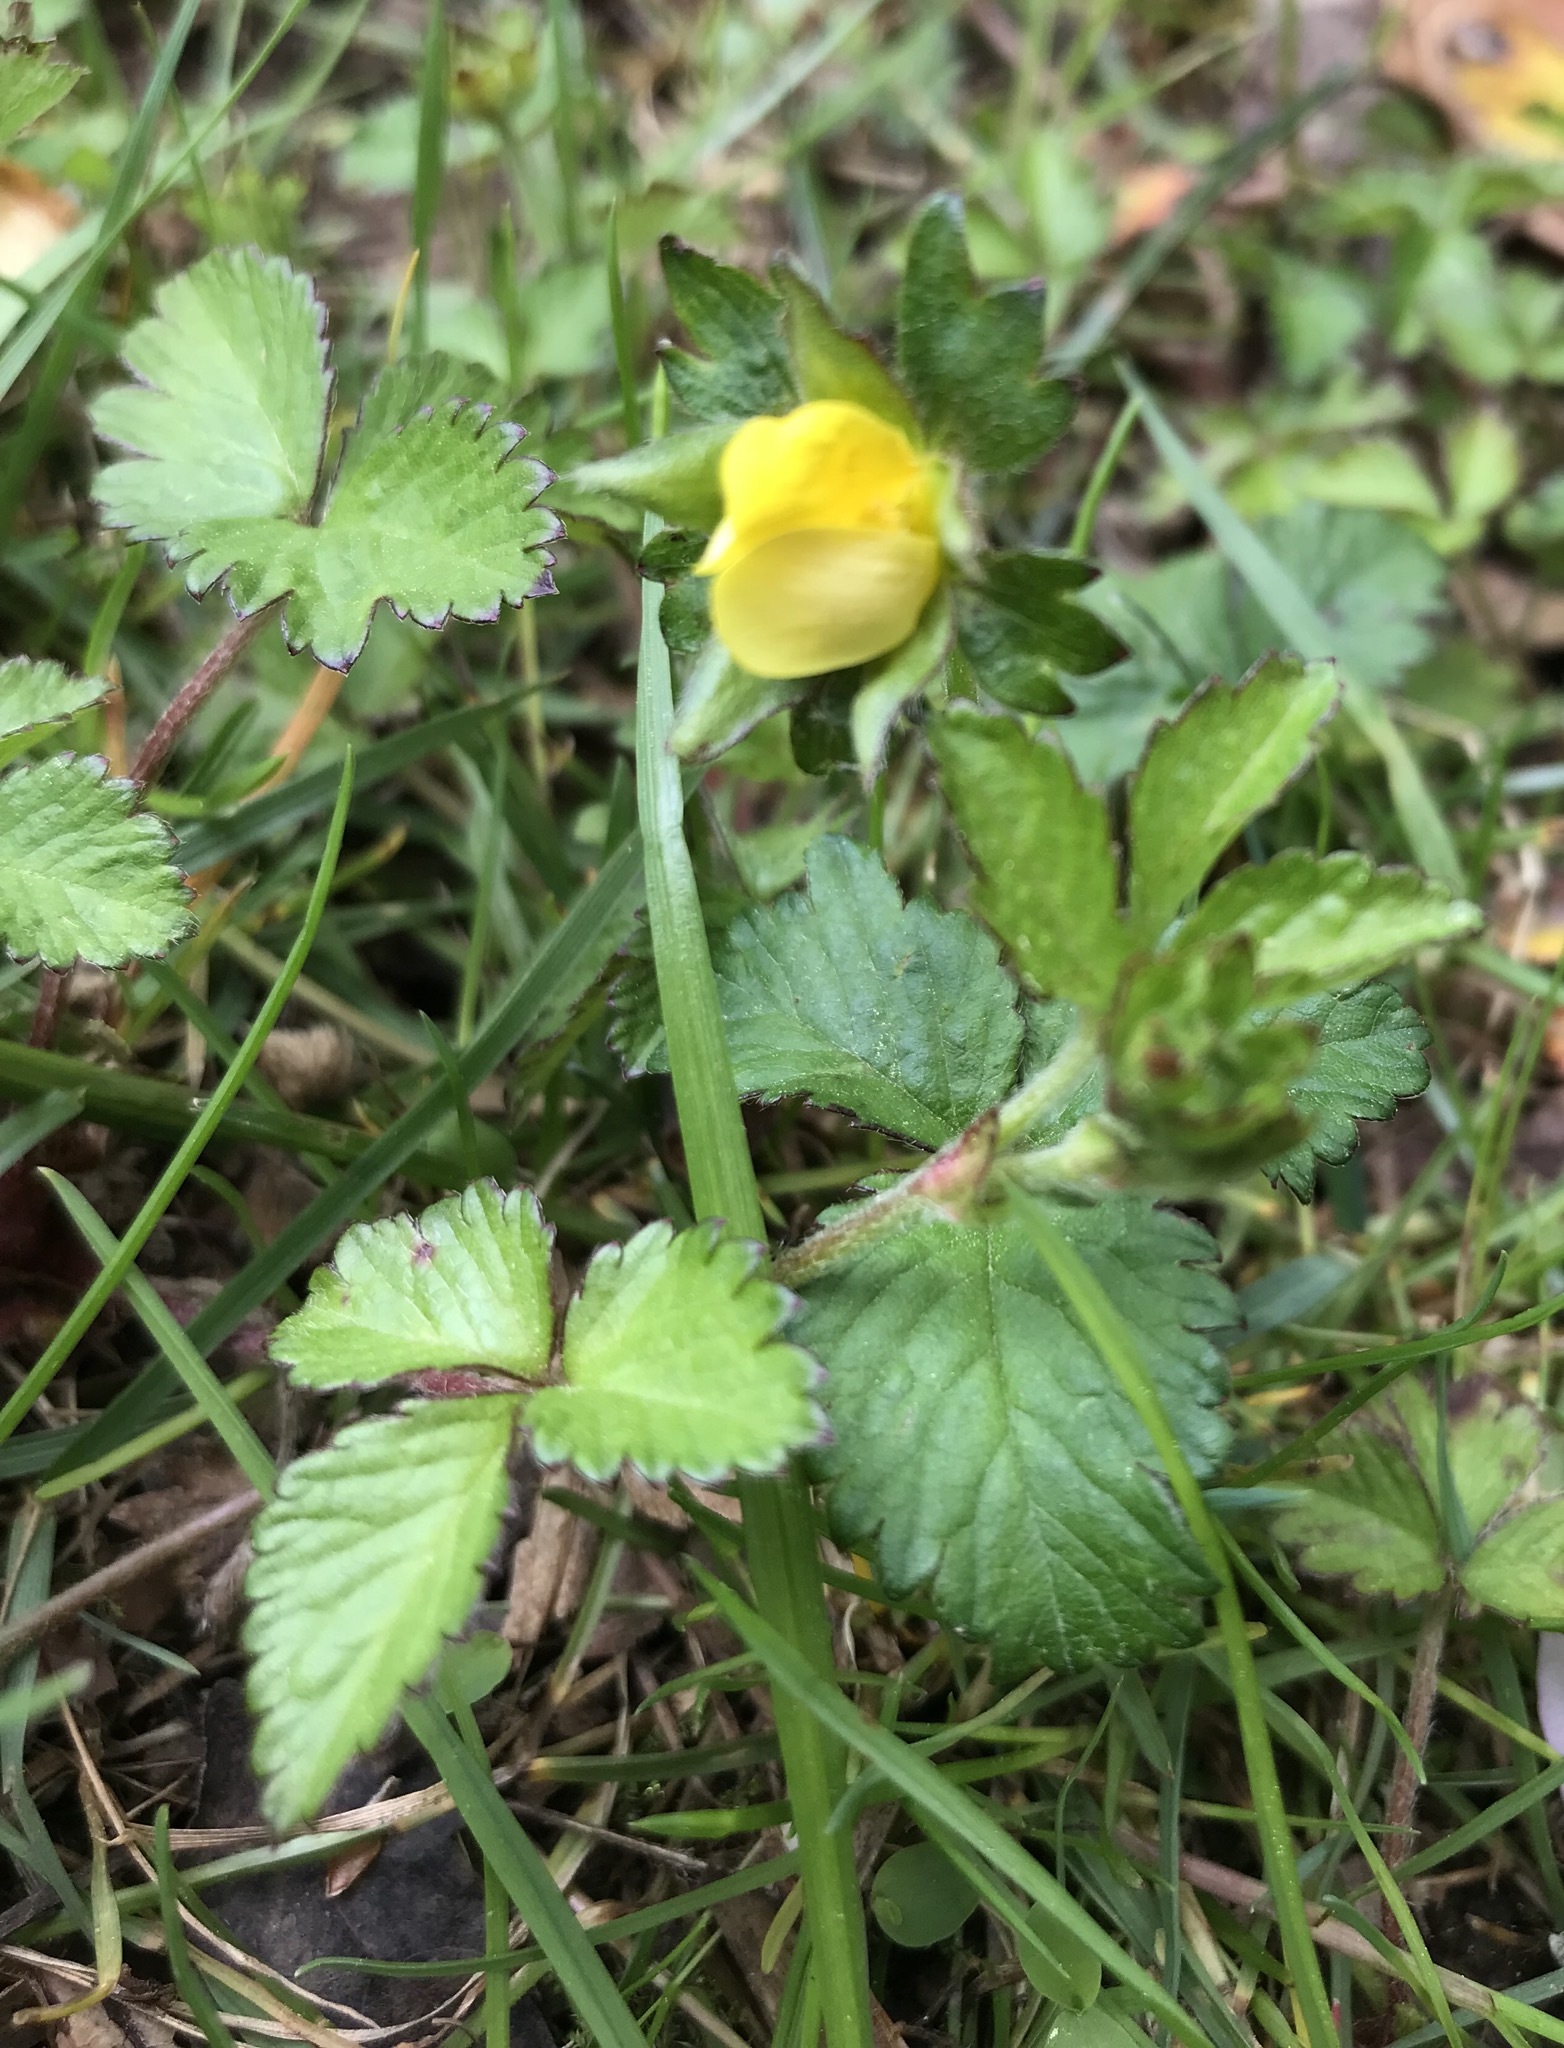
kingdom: Plantae
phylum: Tracheophyta
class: Magnoliopsida
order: Rosales
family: Rosaceae
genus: Potentilla
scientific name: Potentilla indica
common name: Yellow-flowered strawberry
